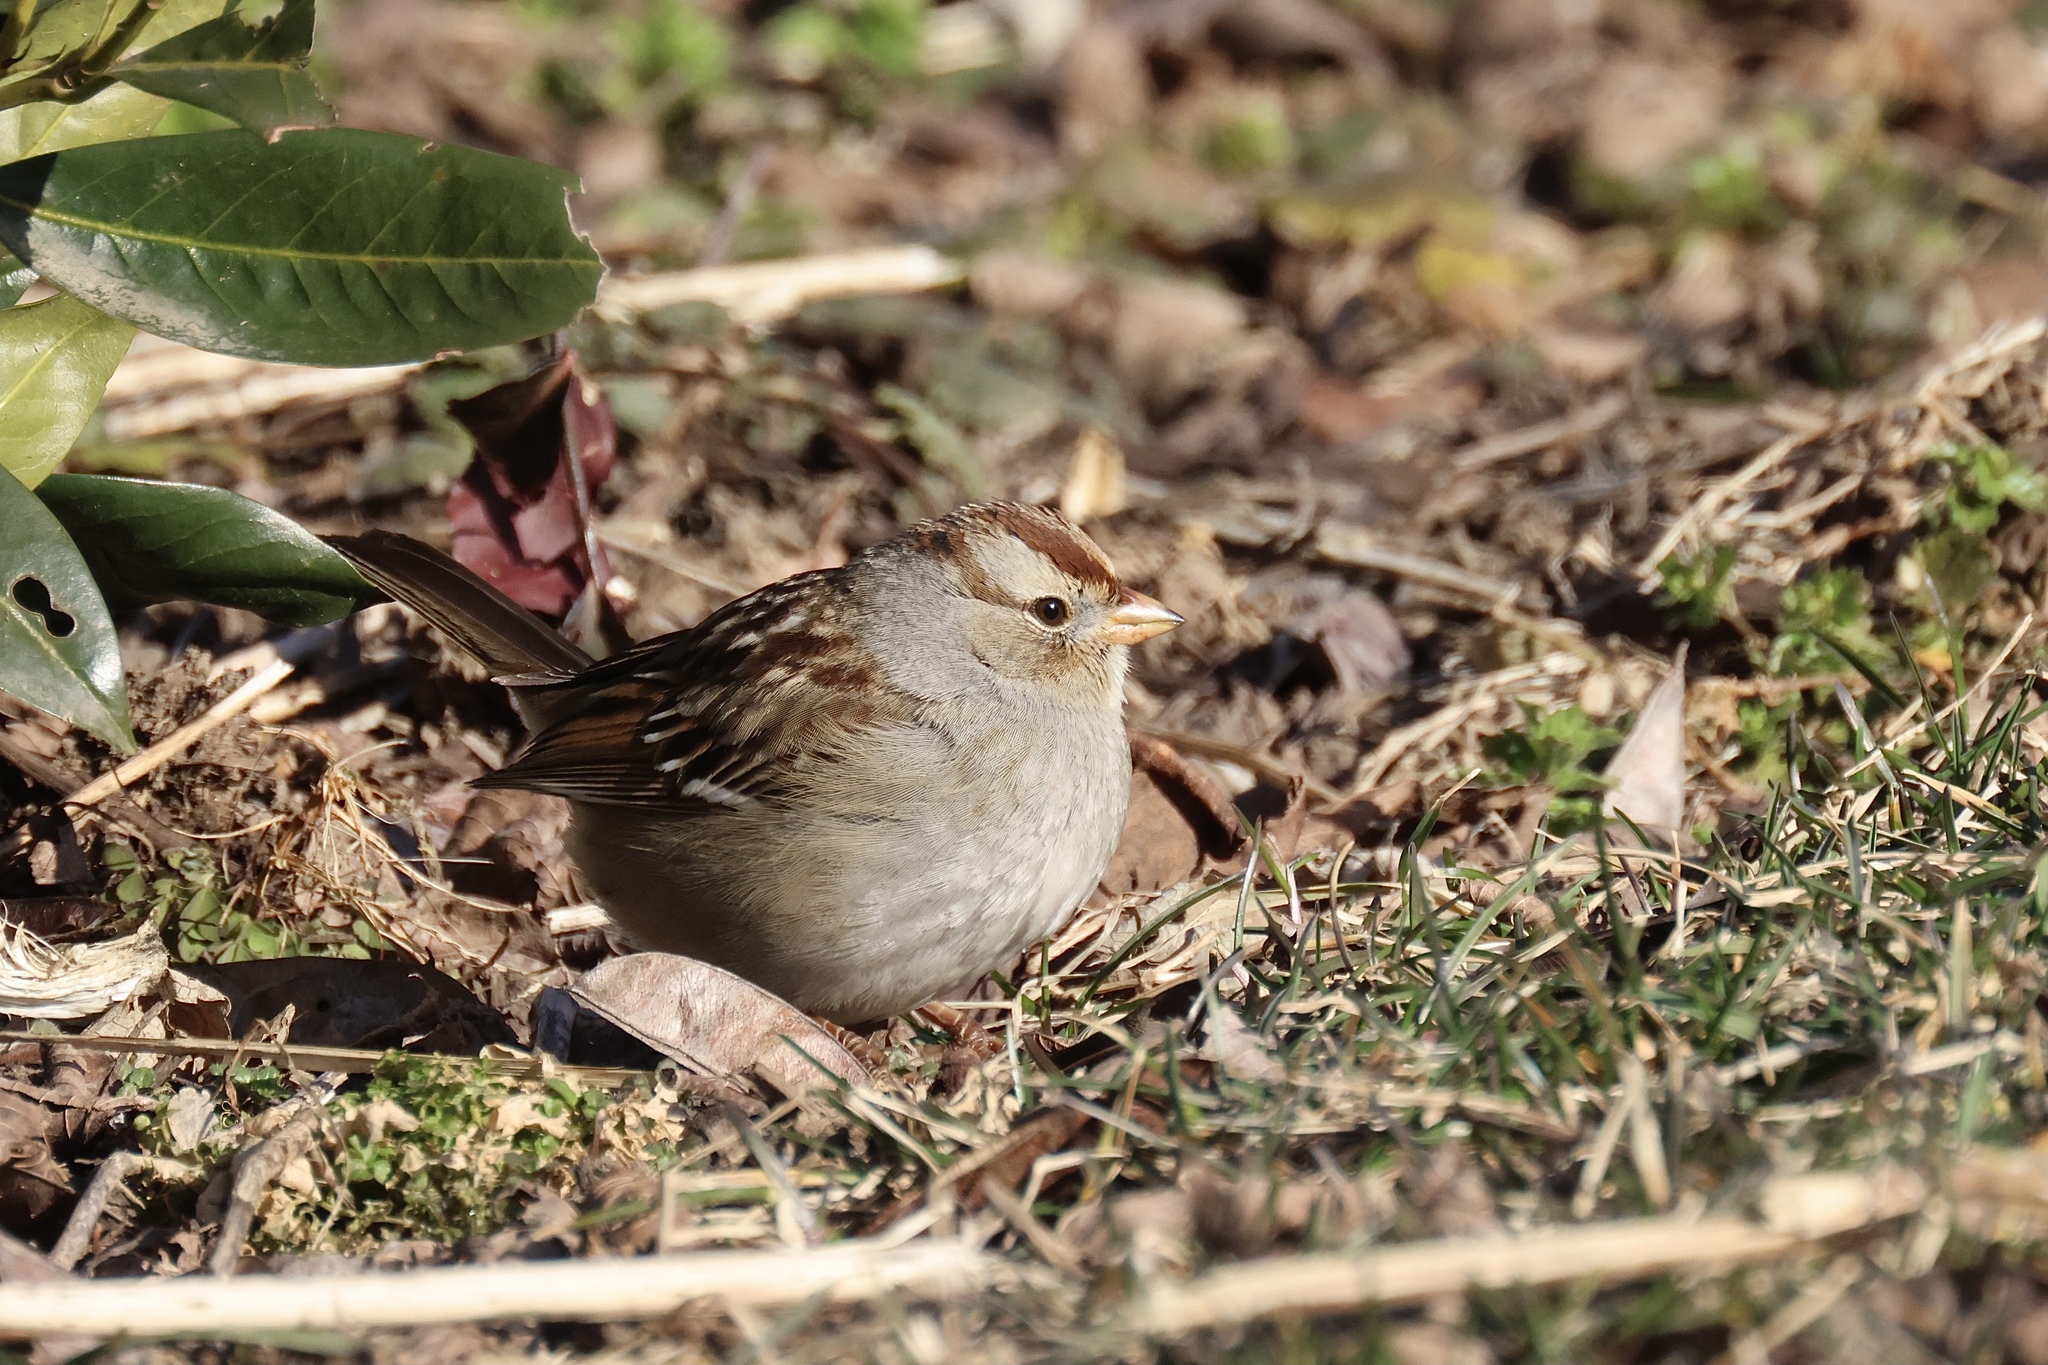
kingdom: Animalia
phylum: Chordata
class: Aves
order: Passeriformes
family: Passerellidae
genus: Zonotrichia
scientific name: Zonotrichia leucophrys
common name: White-crowned sparrow
